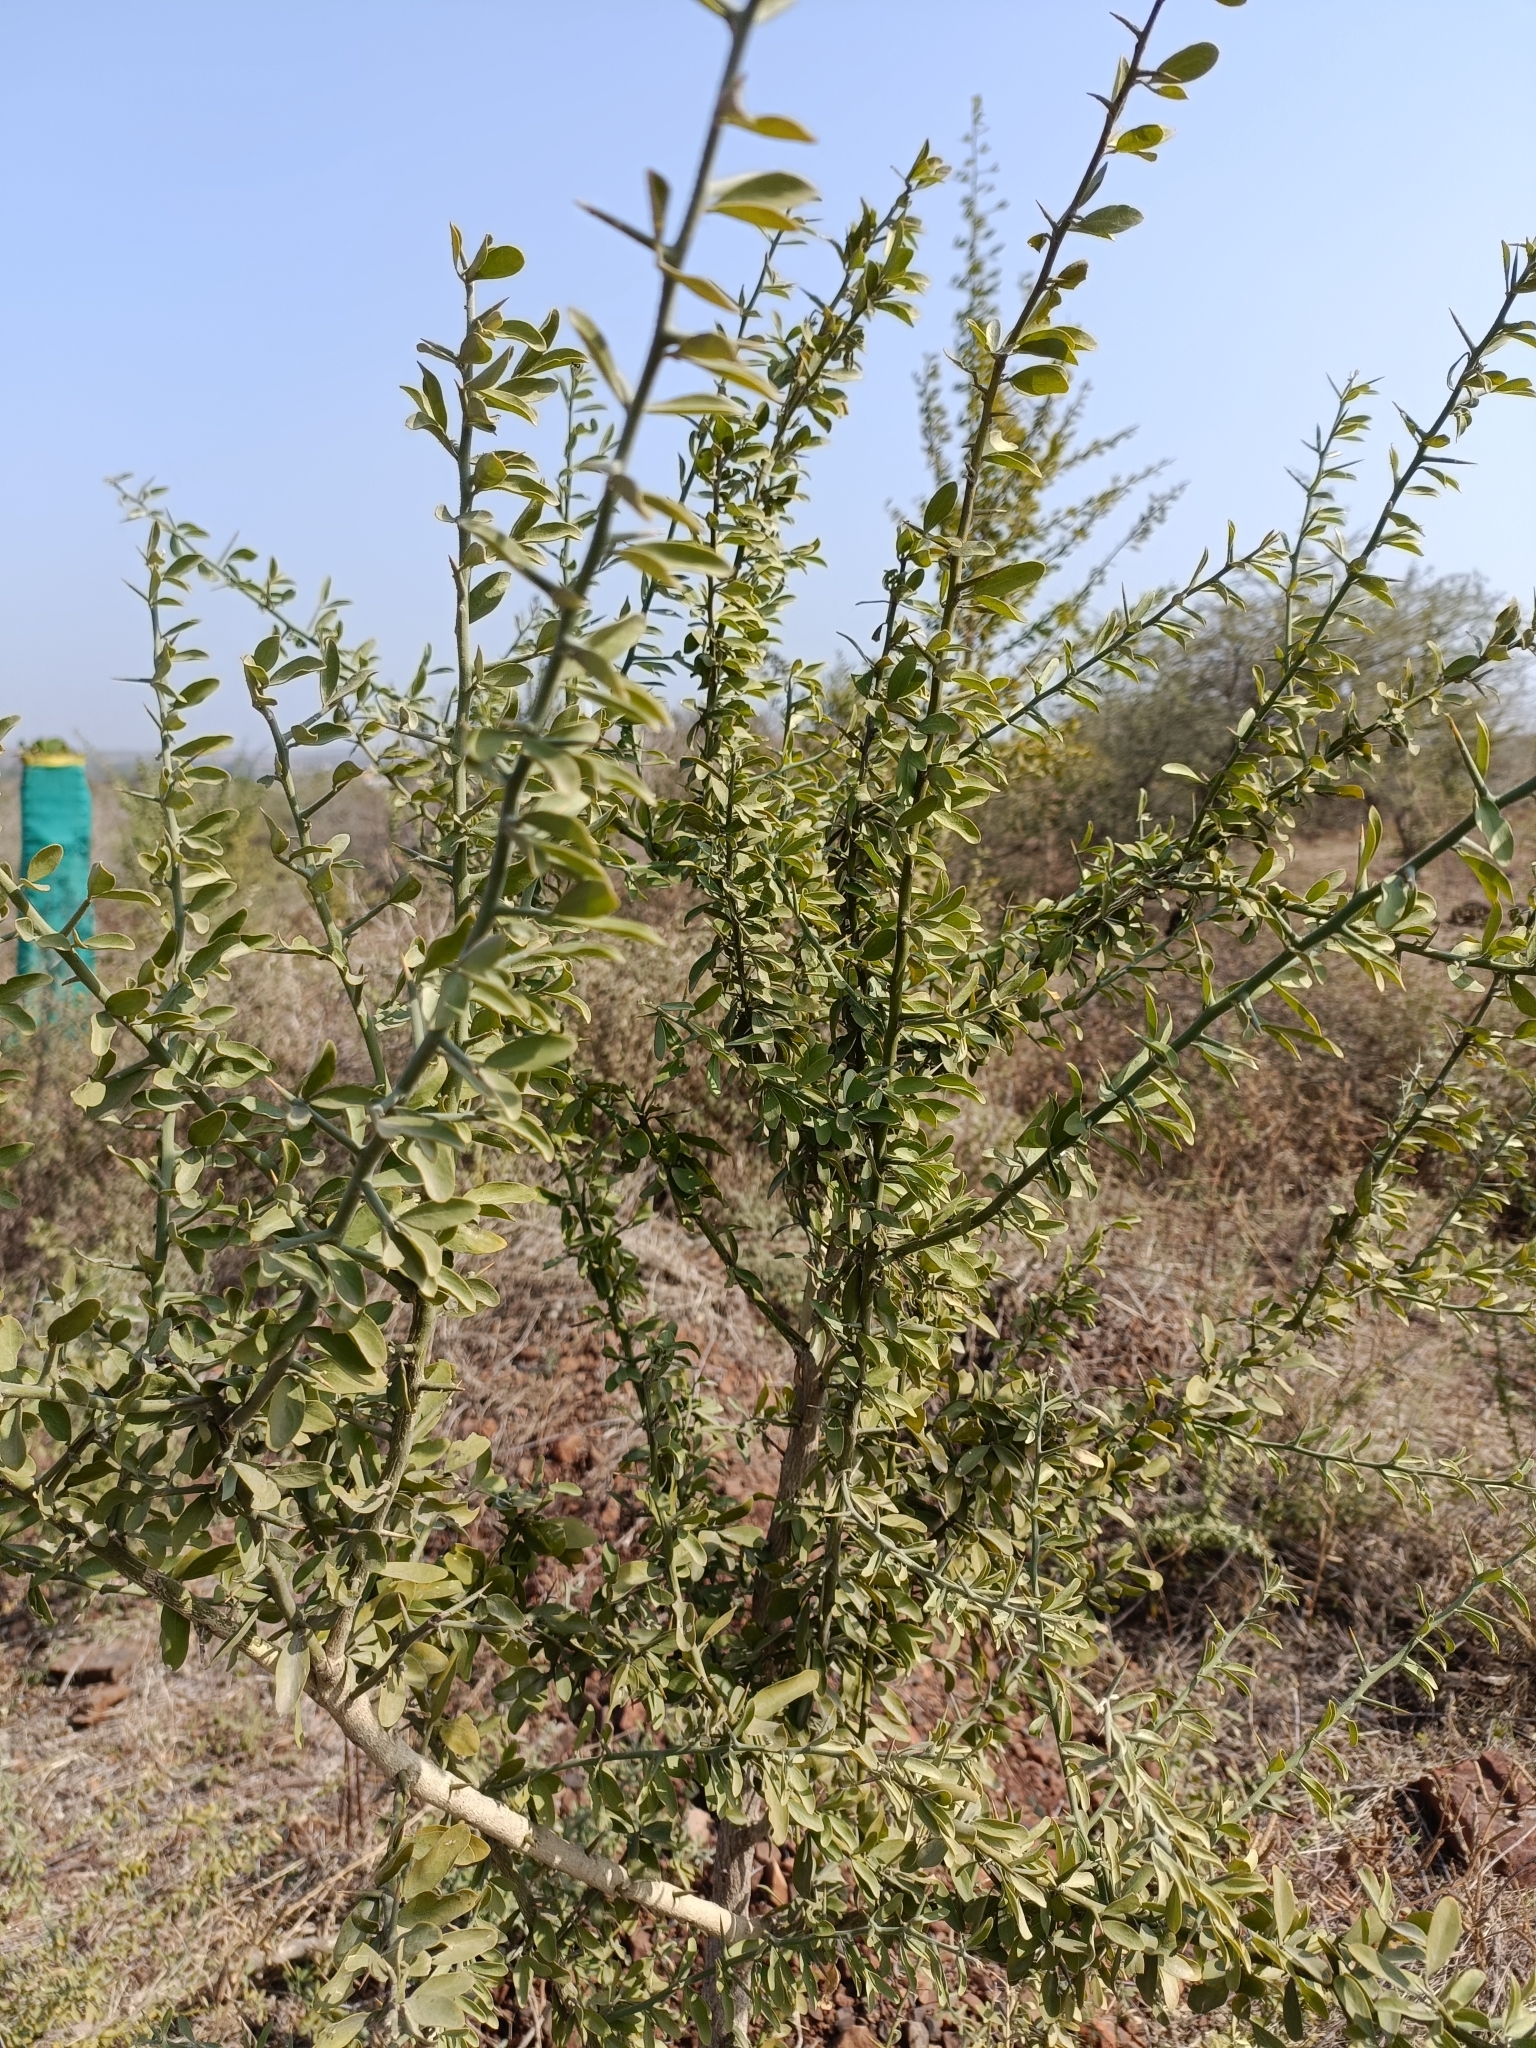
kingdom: Plantae
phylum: Tracheophyta
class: Magnoliopsida
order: Zygophyllales
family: Zygophyllaceae
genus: Balanites
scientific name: Balanites aegyptiaca
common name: Balanites
